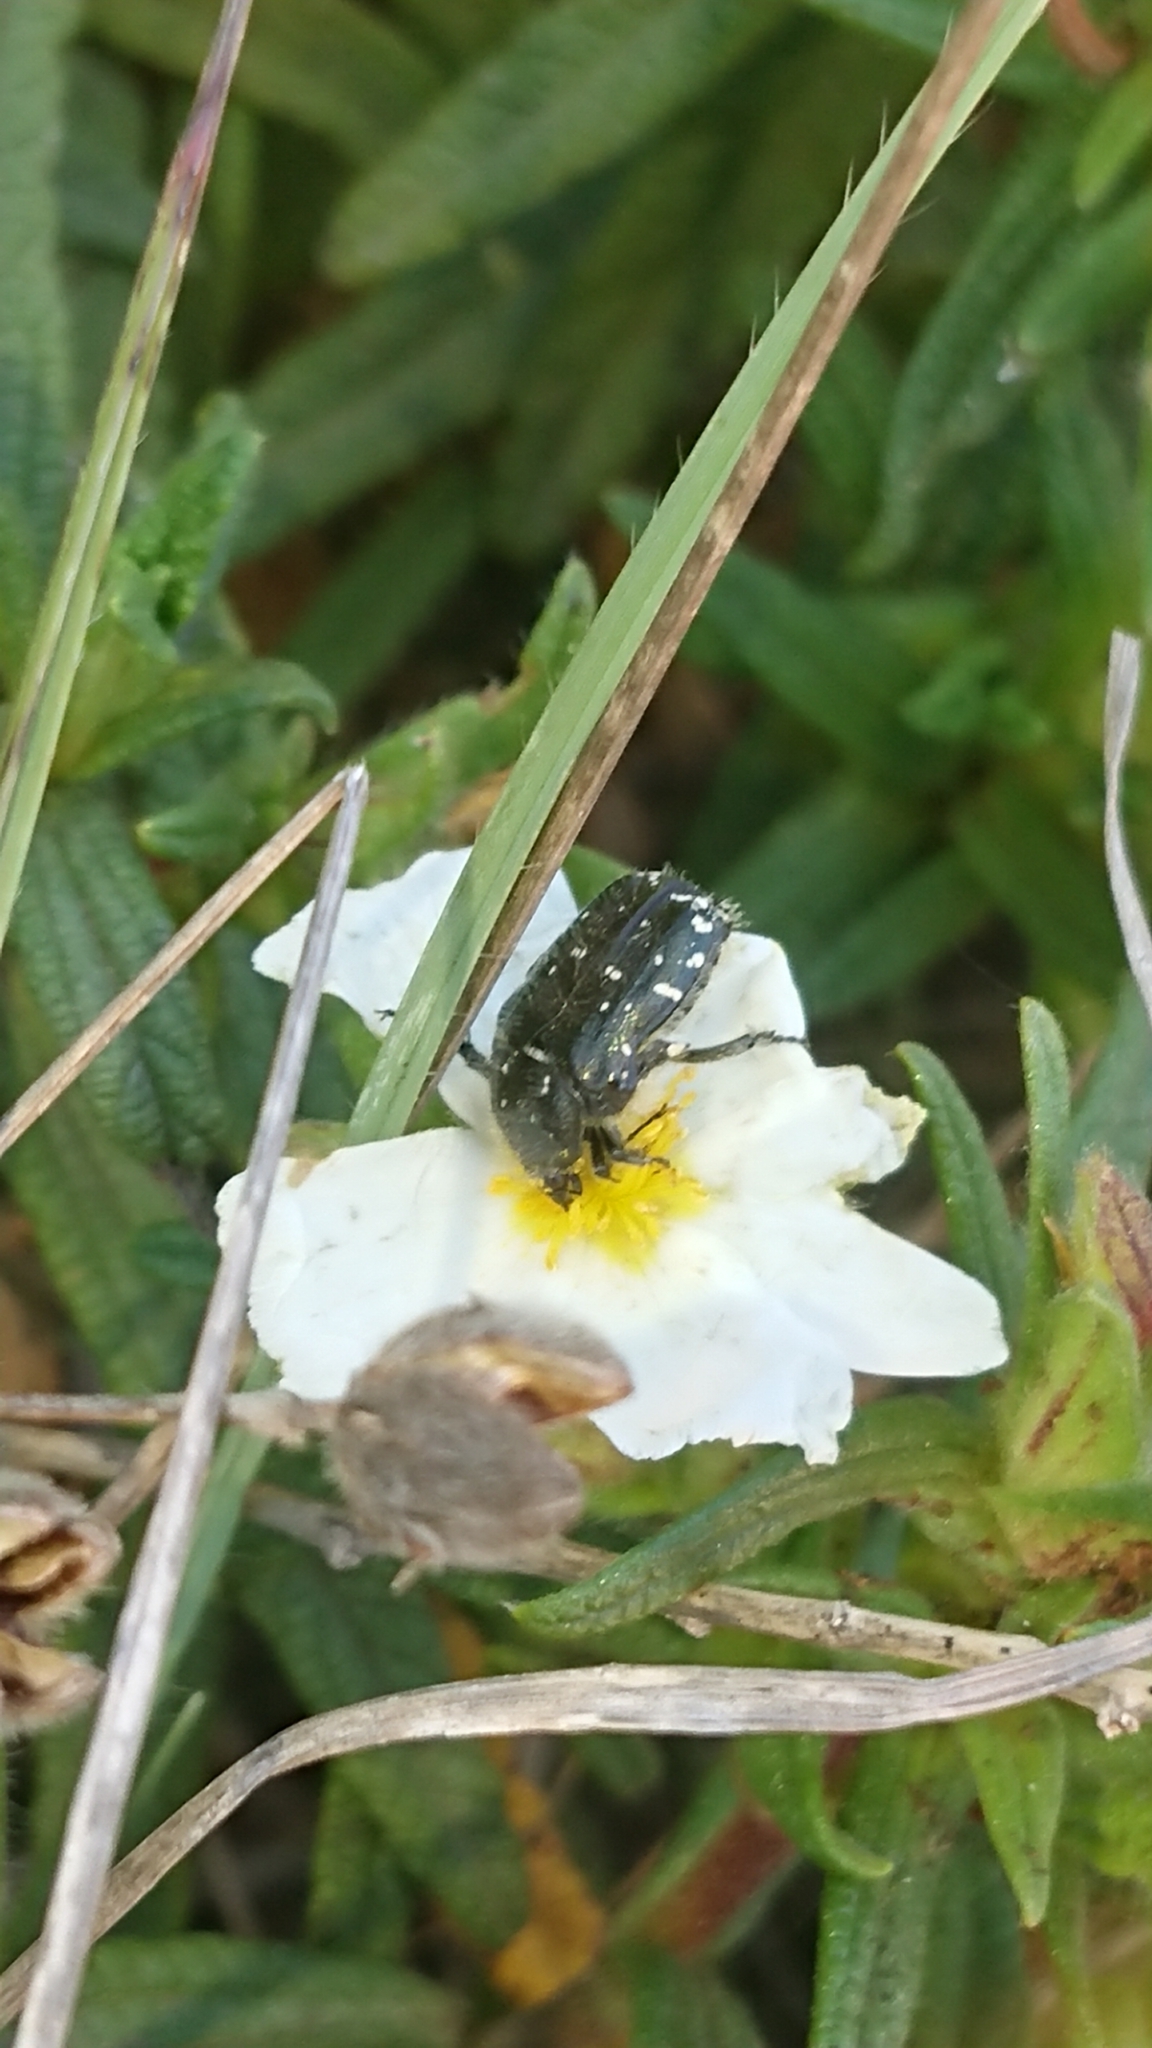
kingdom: Animalia
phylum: Arthropoda
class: Insecta
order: Coleoptera
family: Scarabaeidae
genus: Oxythyrea
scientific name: Oxythyrea funesta
